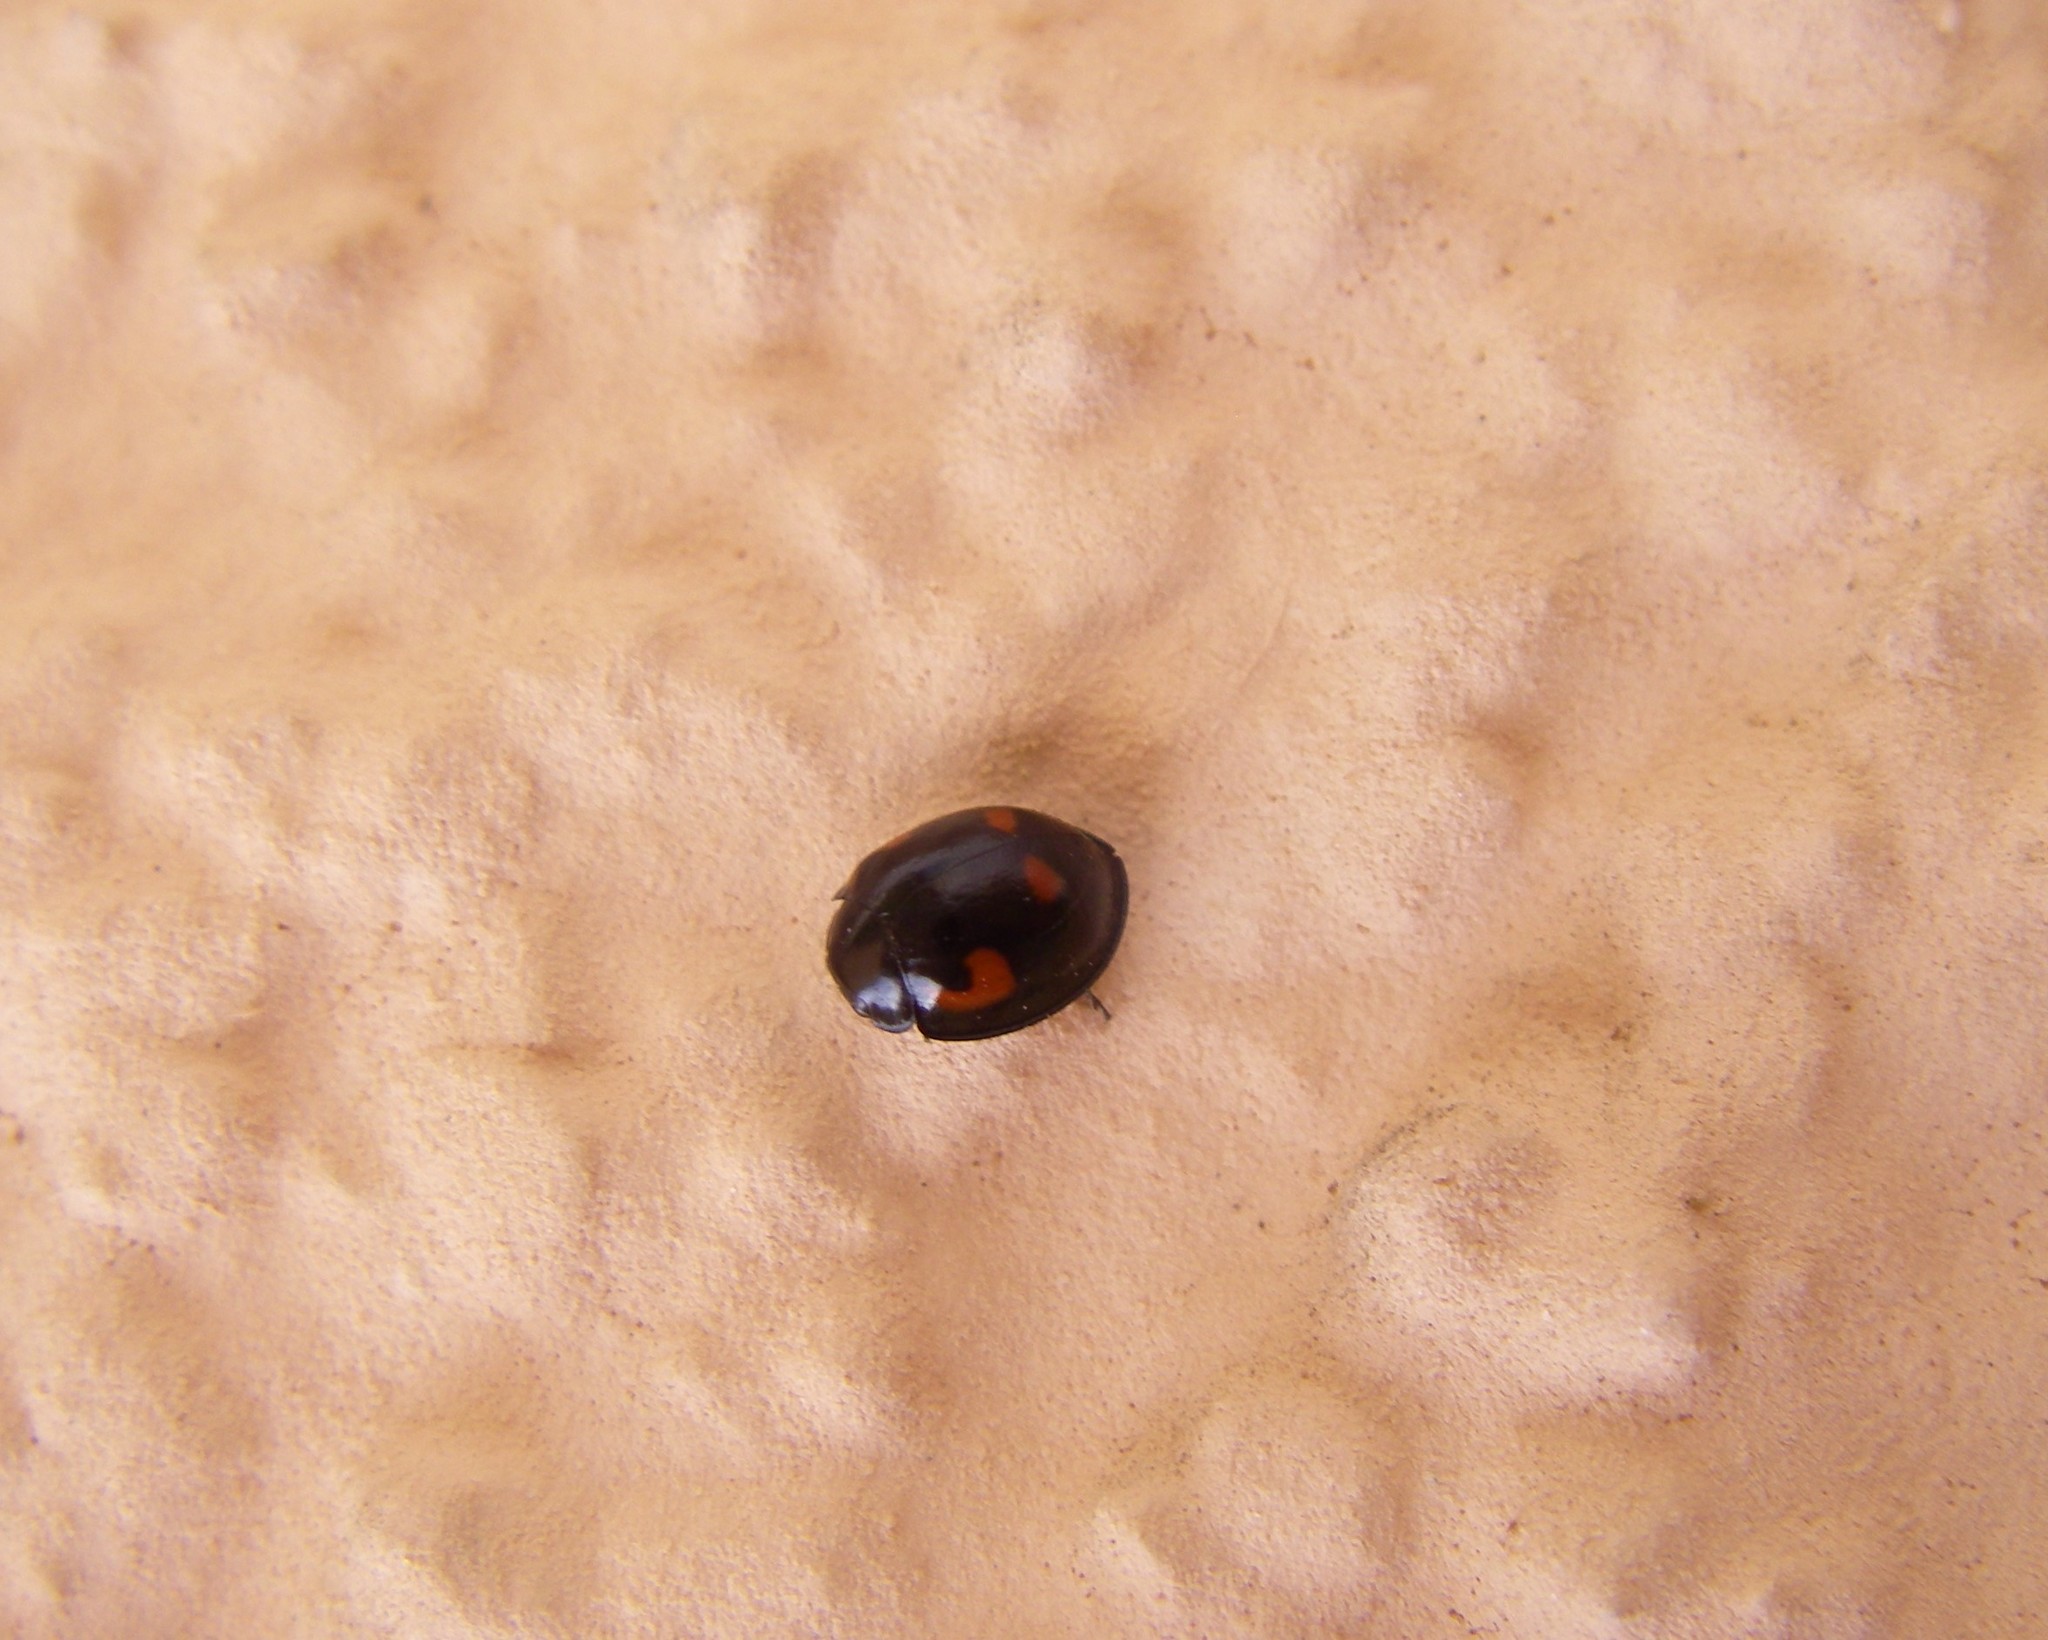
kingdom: Animalia
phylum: Arthropoda
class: Insecta
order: Coleoptera
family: Coccinellidae
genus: Brumus
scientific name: Brumus quadripustulatus
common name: Ladybird beetle
